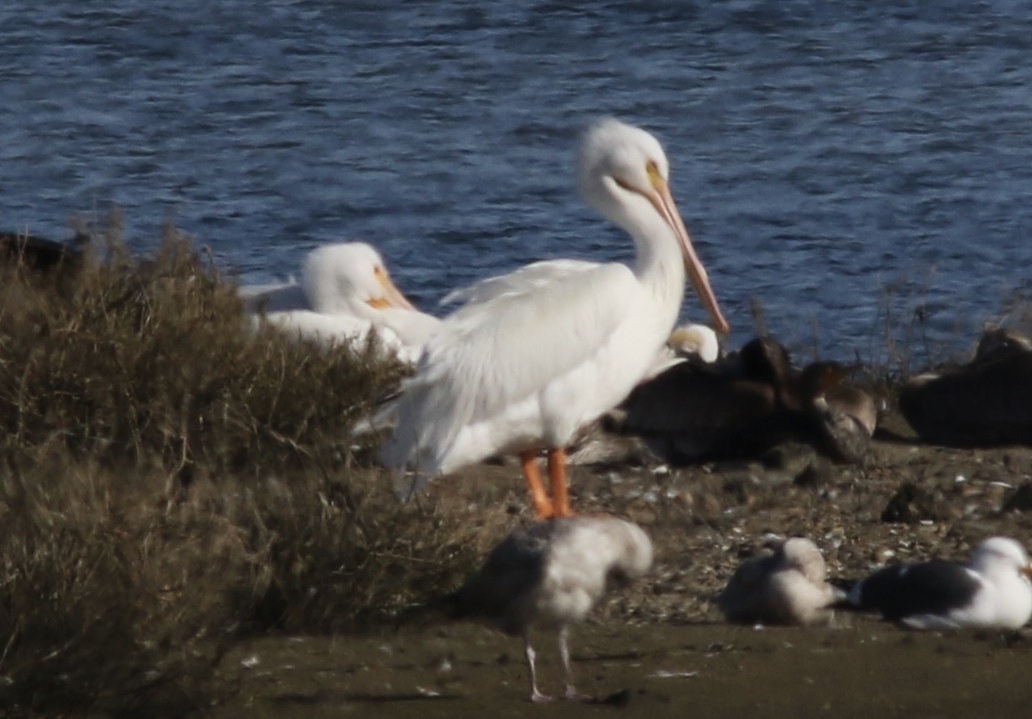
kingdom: Animalia
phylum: Chordata
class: Aves
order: Pelecaniformes
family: Pelecanidae
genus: Pelecanus
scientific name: Pelecanus erythrorhynchos
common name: American white pelican
